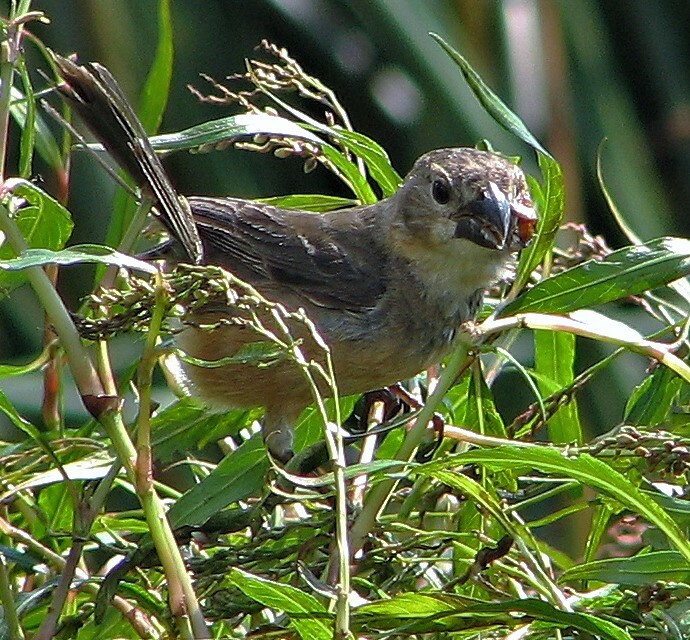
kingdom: Animalia
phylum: Chordata
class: Aves
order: Passeriformes
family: Thraupidae
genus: Sporophila
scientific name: Sporophila collaris
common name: Rusty-collared seedeater
